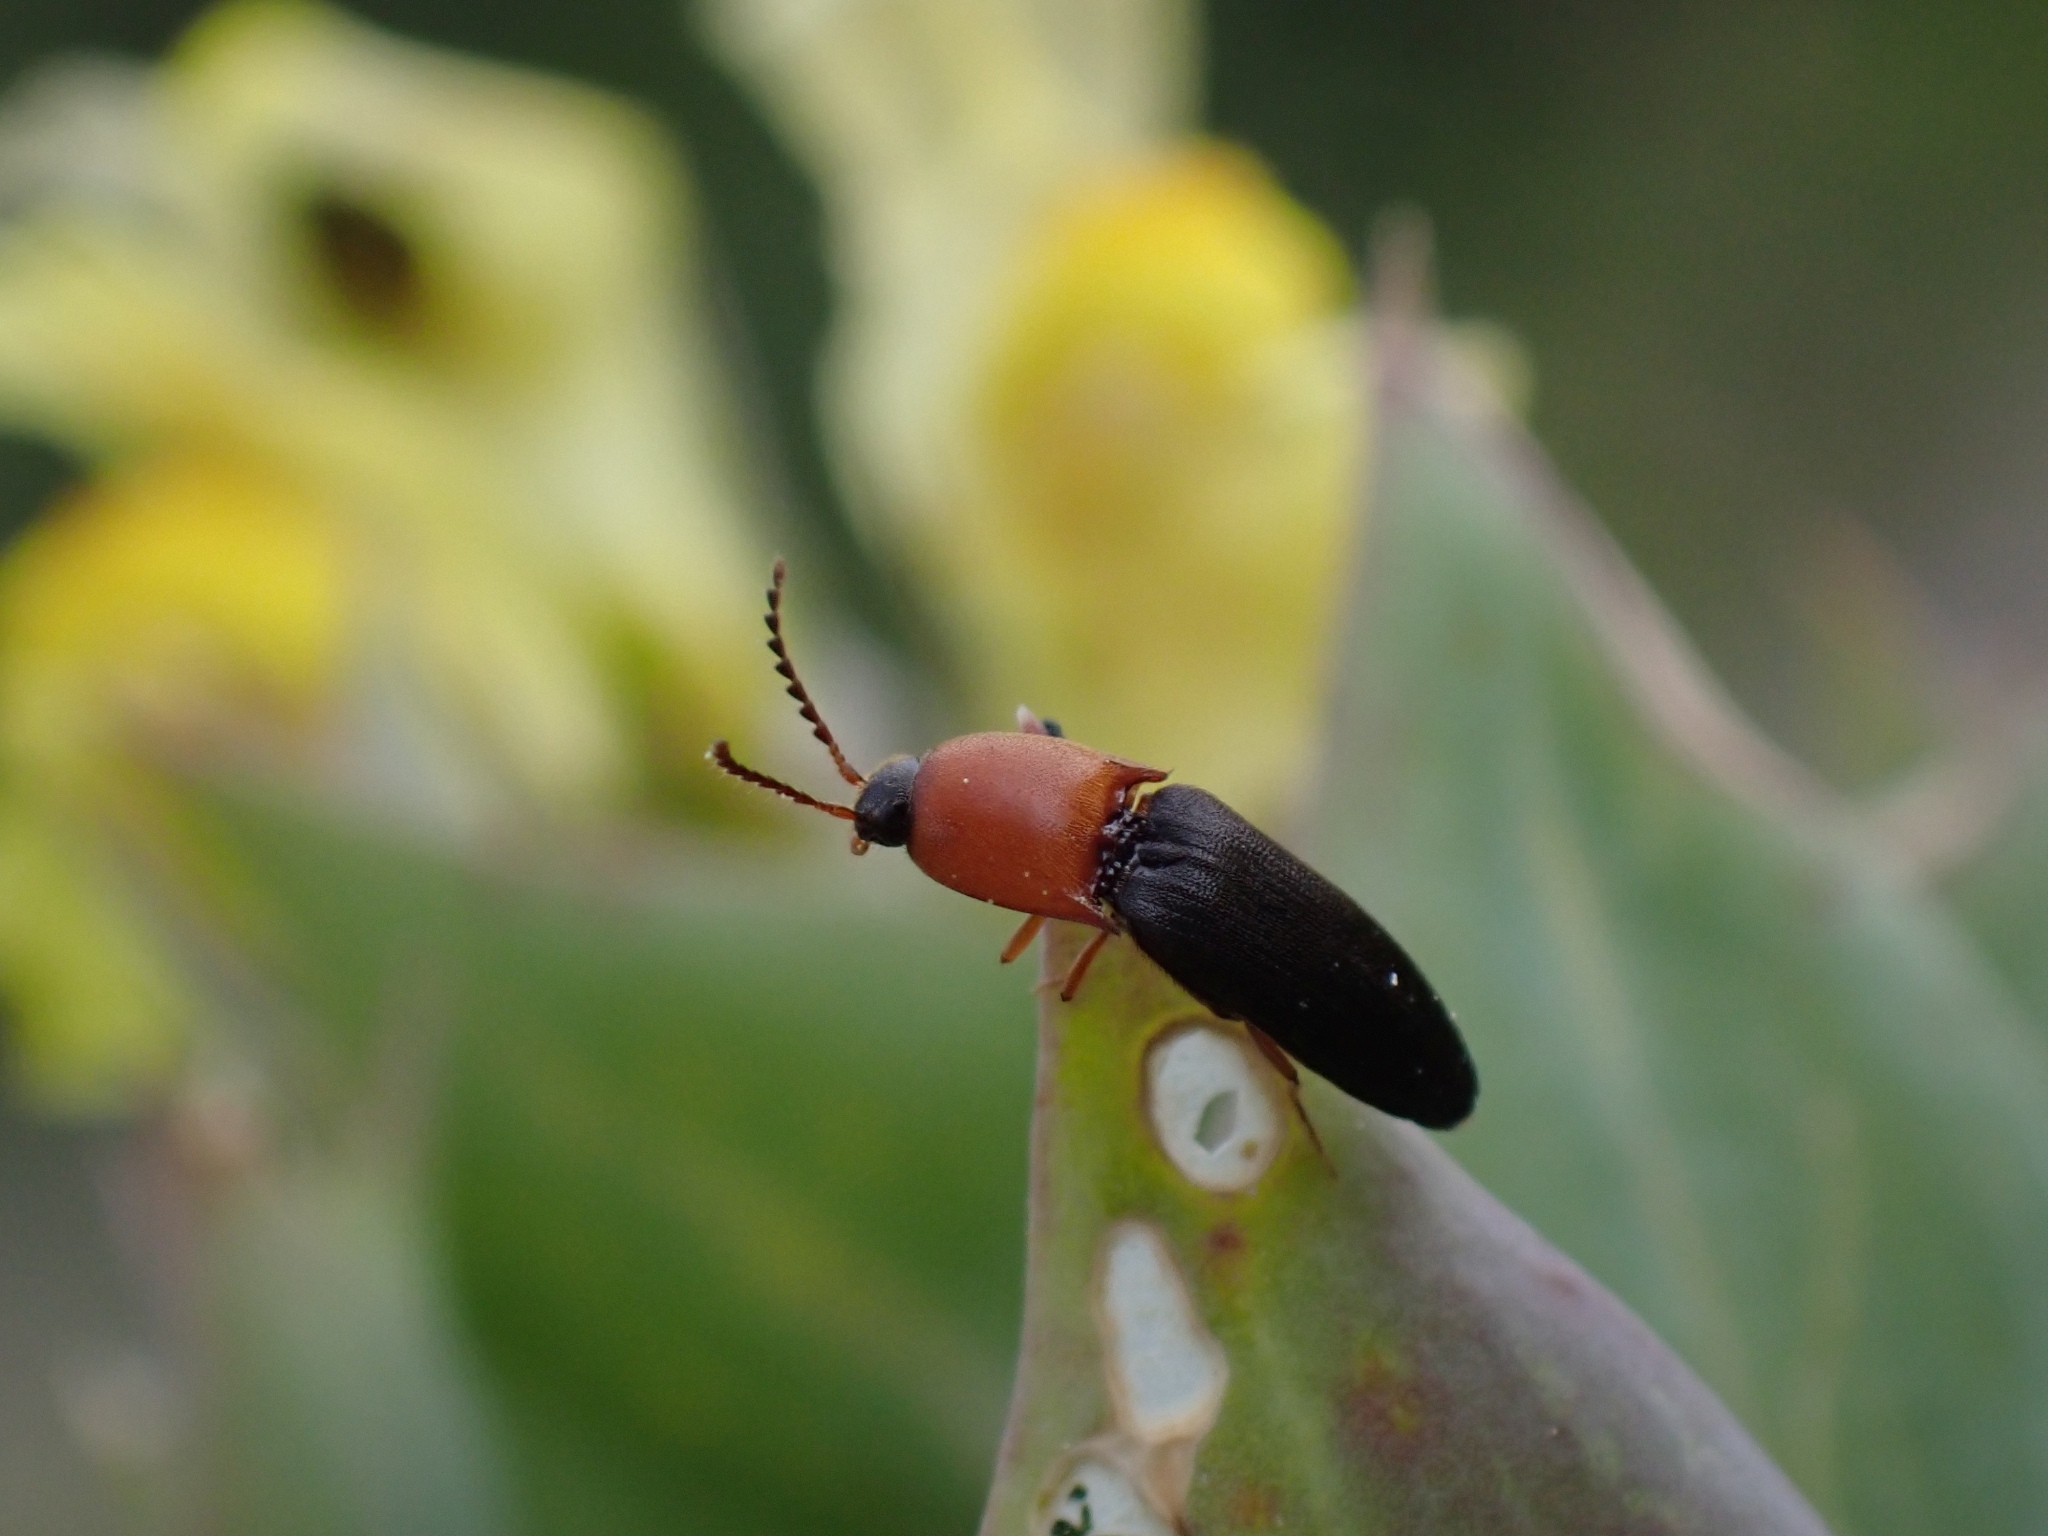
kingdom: Animalia
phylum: Arthropoda
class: Insecta
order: Coleoptera
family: Elateridae
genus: Megapenthes
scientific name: Megapenthes nigriventris
